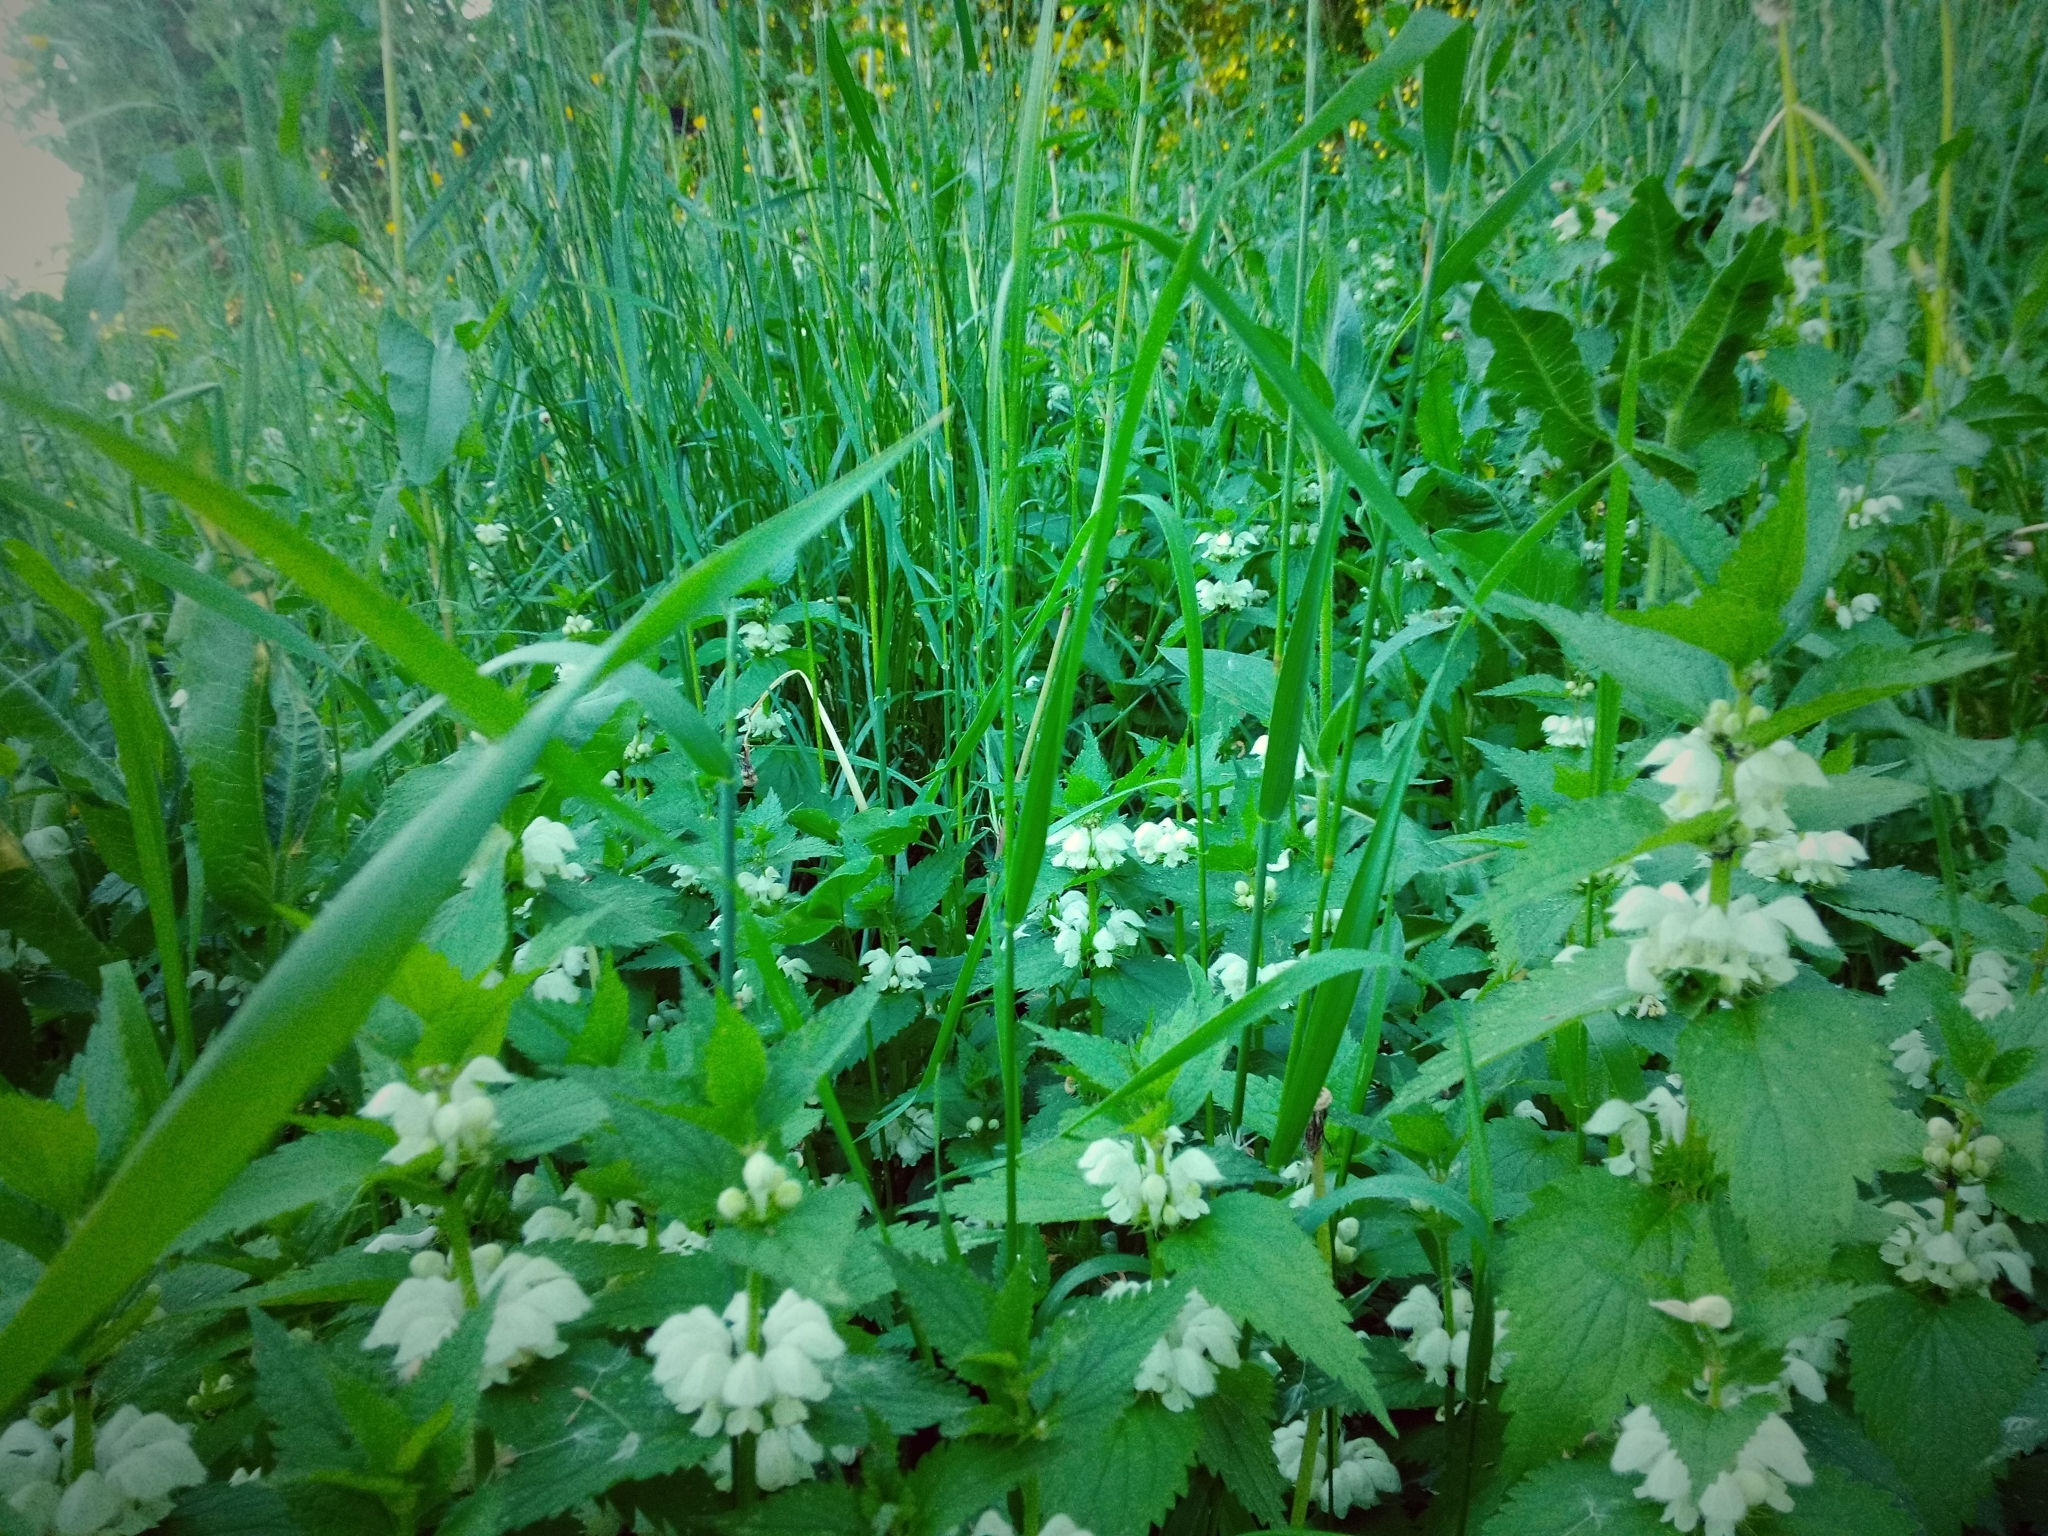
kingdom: Plantae
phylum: Tracheophyta
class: Magnoliopsida
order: Lamiales
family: Lamiaceae
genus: Lamium
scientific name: Lamium album
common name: White dead-nettle
